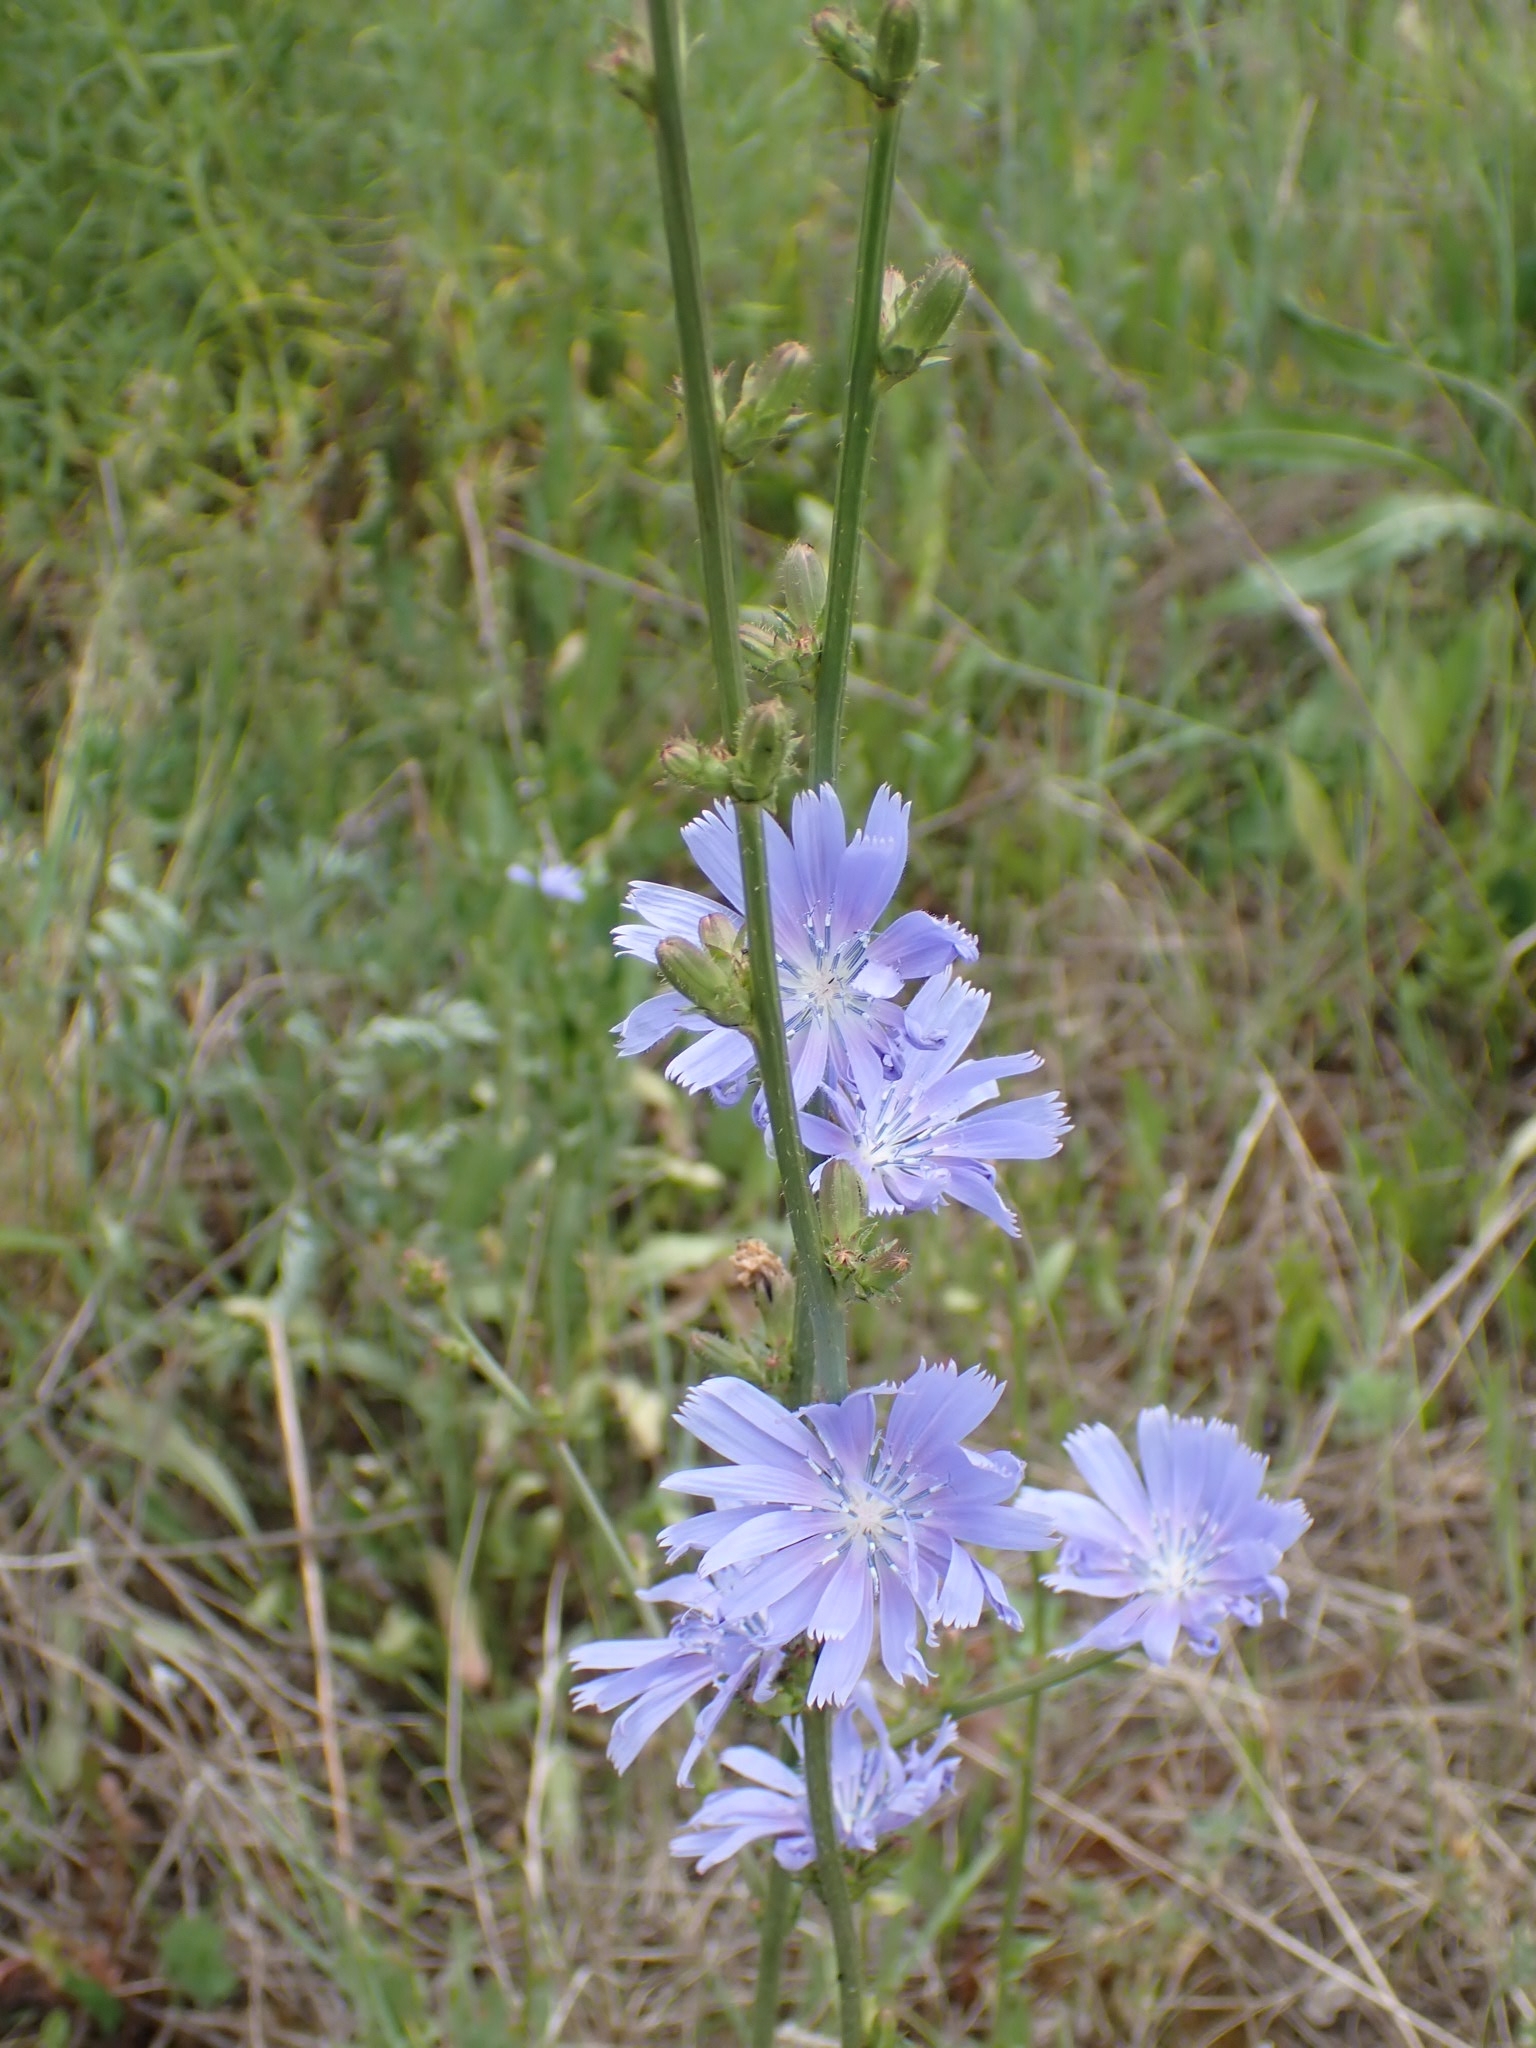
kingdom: Plantae
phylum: Tracheophyta
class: Magnoliopsida
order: Asterales
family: Asteraceae
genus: Cichorium
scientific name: Cichorium intybus
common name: Chicory
